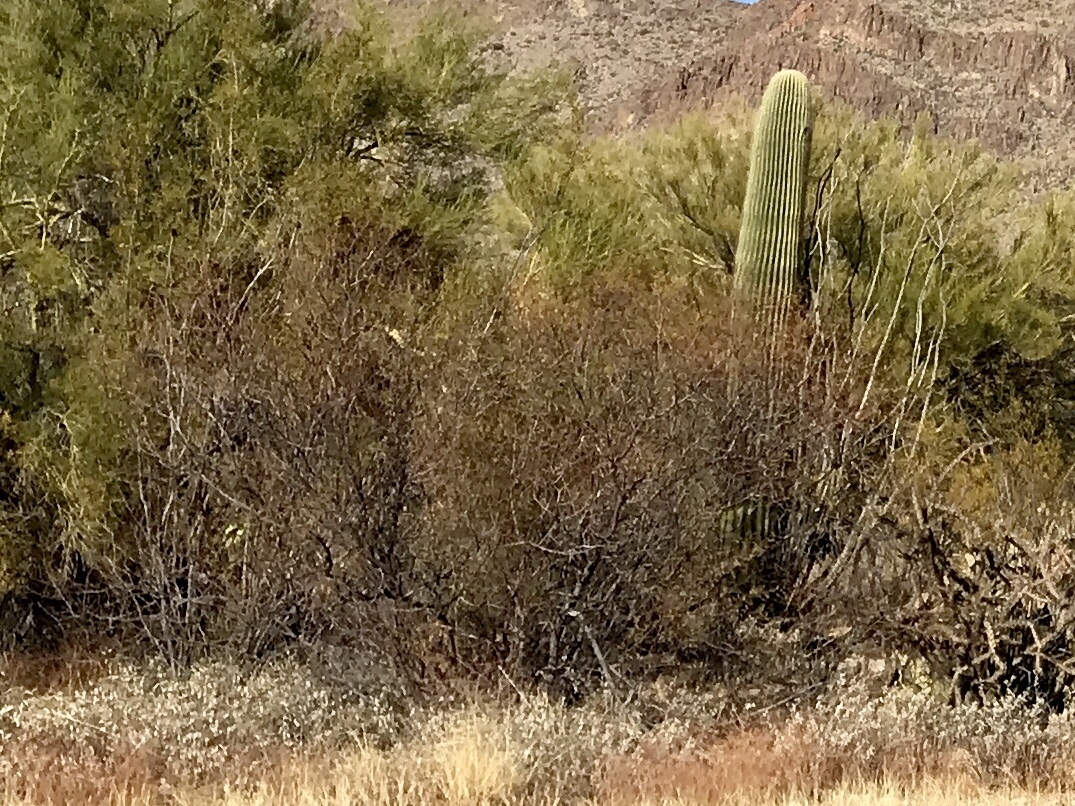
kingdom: Plantae
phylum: Tracheophyta
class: Magnoliopsida
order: Zygophyllales
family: Zygophyllaceae
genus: Larrea
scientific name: Larrea tridentata
